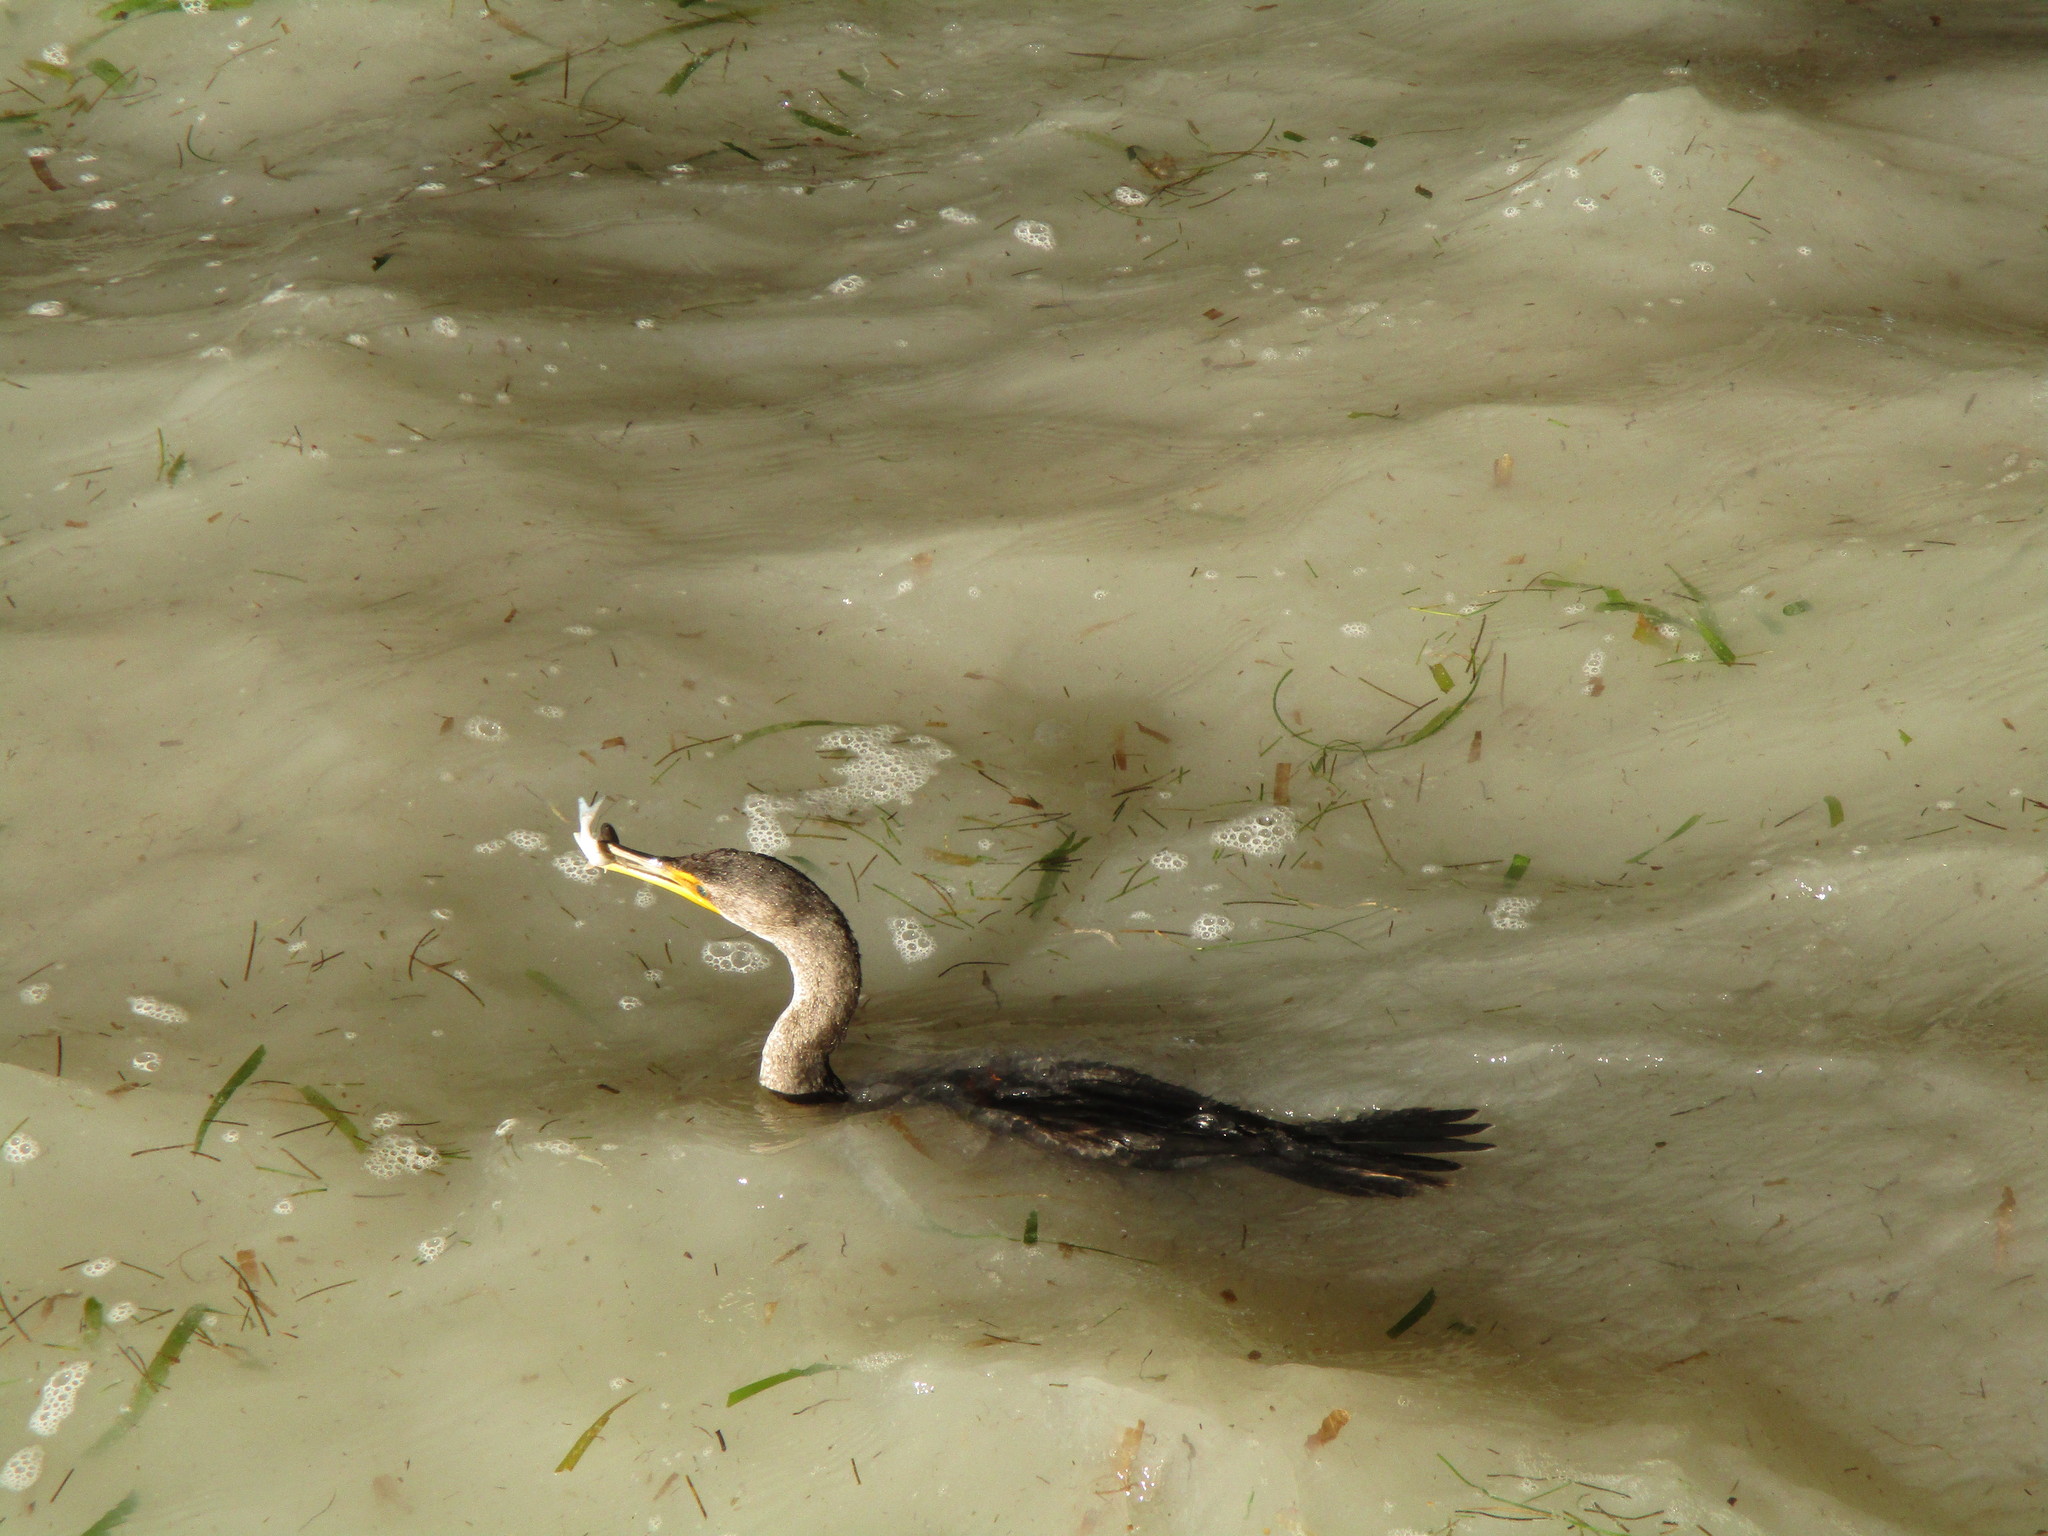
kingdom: Animalia
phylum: Chordata
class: Aves
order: Suliformes
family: Phalacrocoracidae
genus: Phalacrocorax
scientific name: Phalacrocorax auritus
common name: Double-crested cormorant
